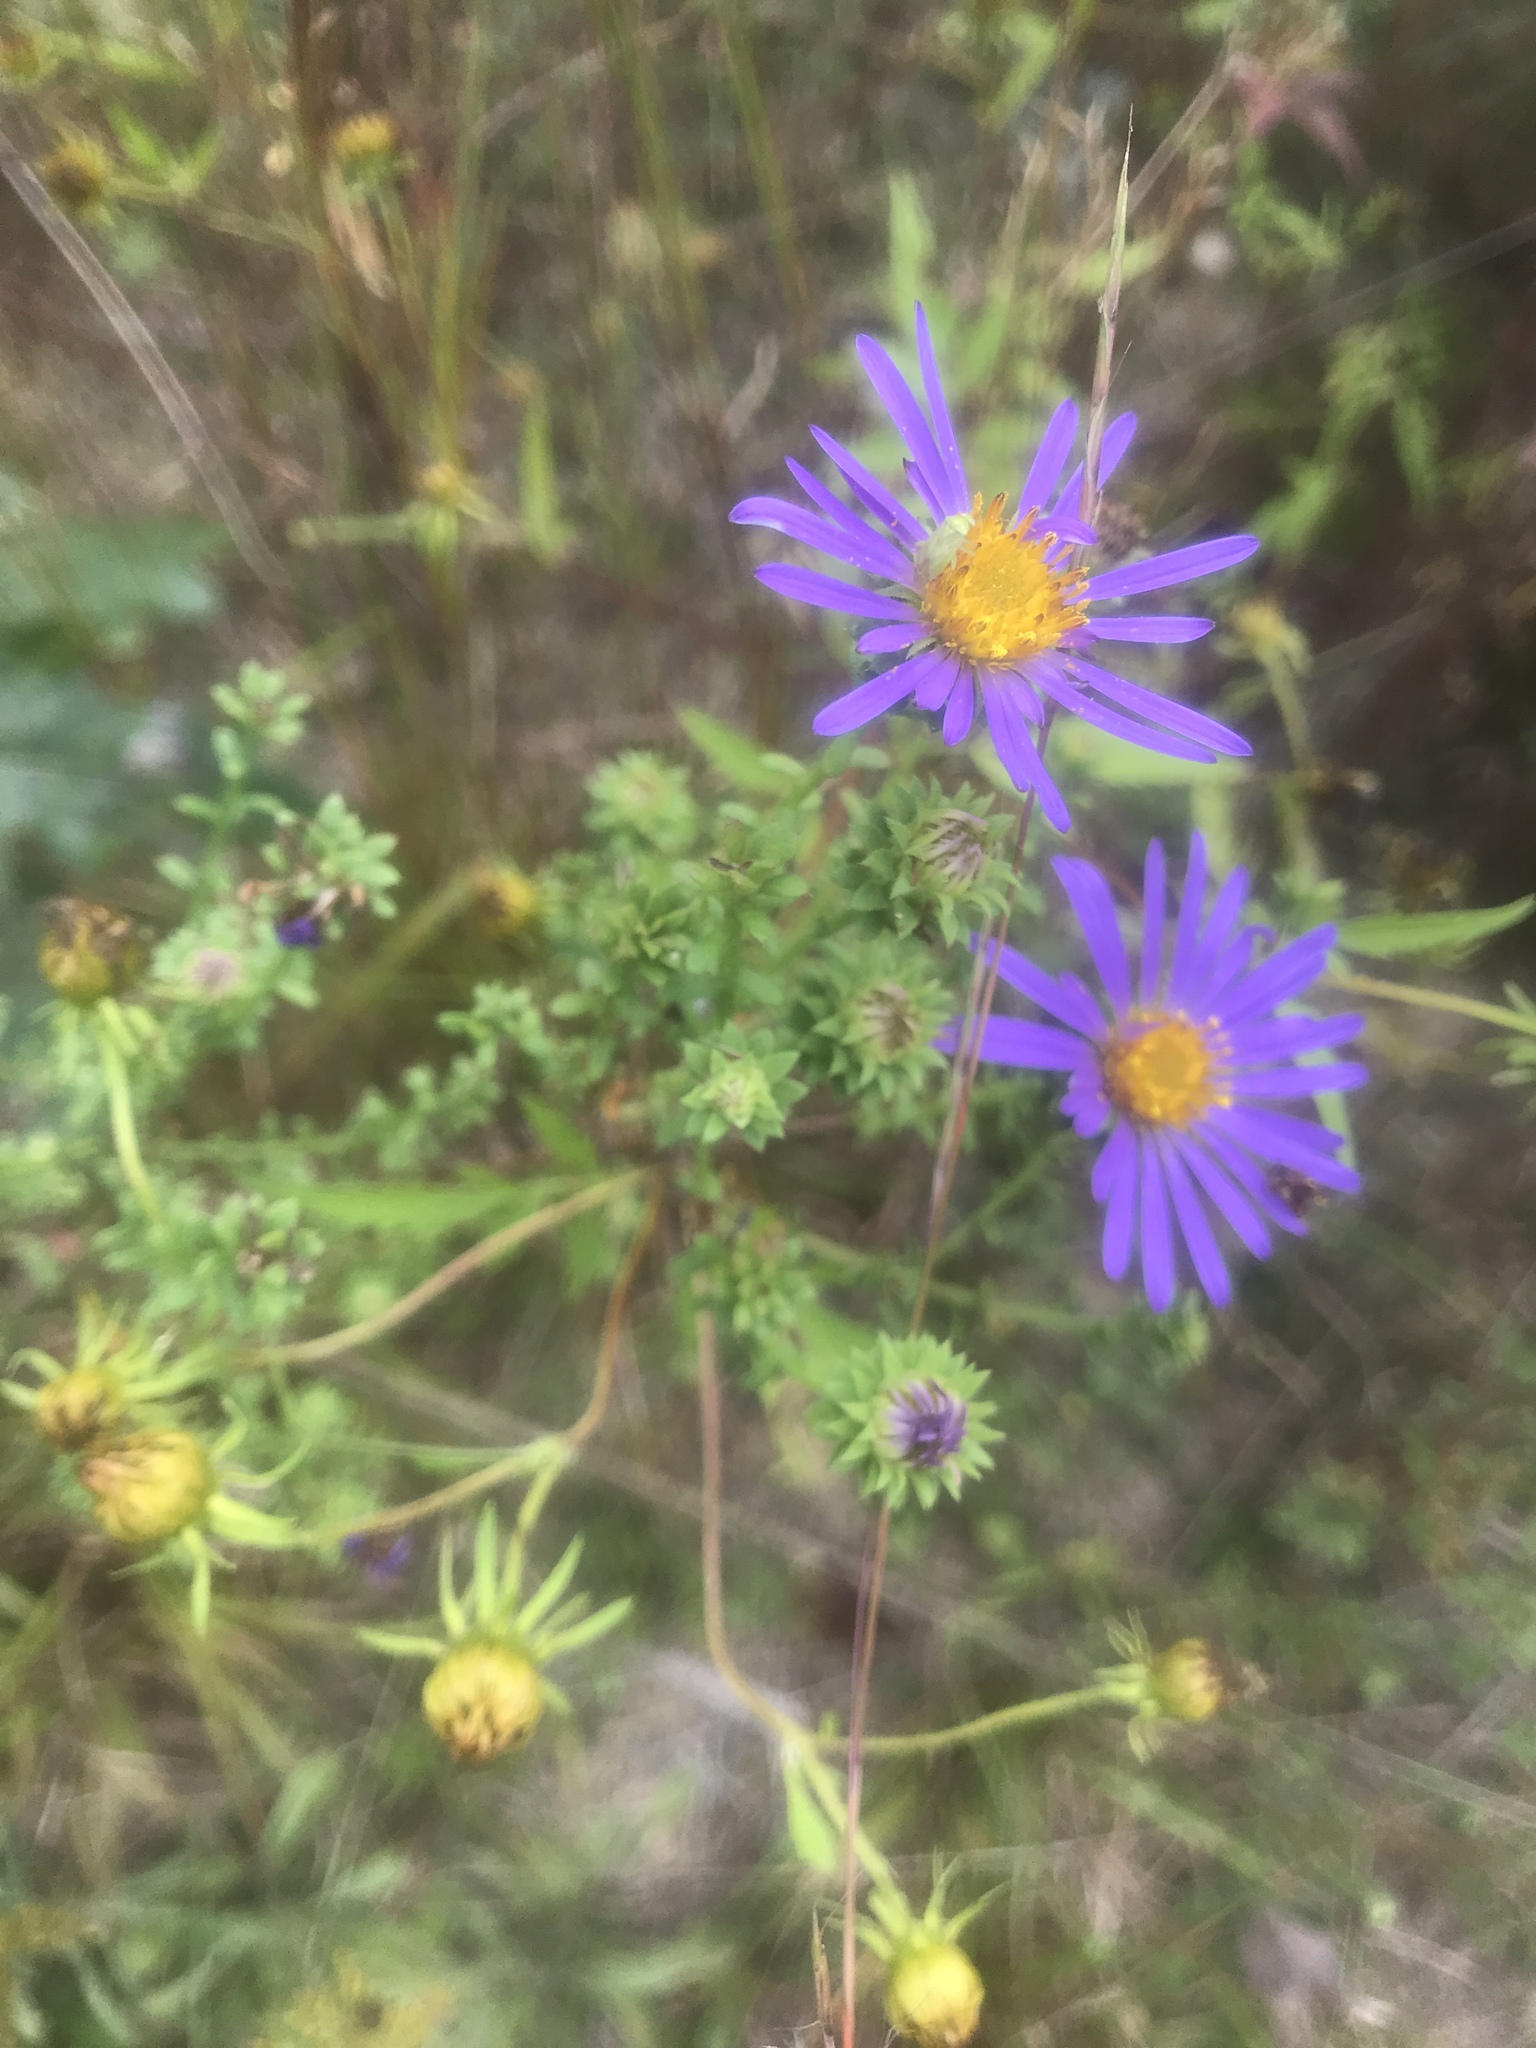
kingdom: Plantae
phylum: Tracheophyta
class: Magnoliopsida
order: Asterales
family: Asteraceae
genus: Symphyotrichum
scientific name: Symphyotrichum grandiflorum
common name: Big-head aster
